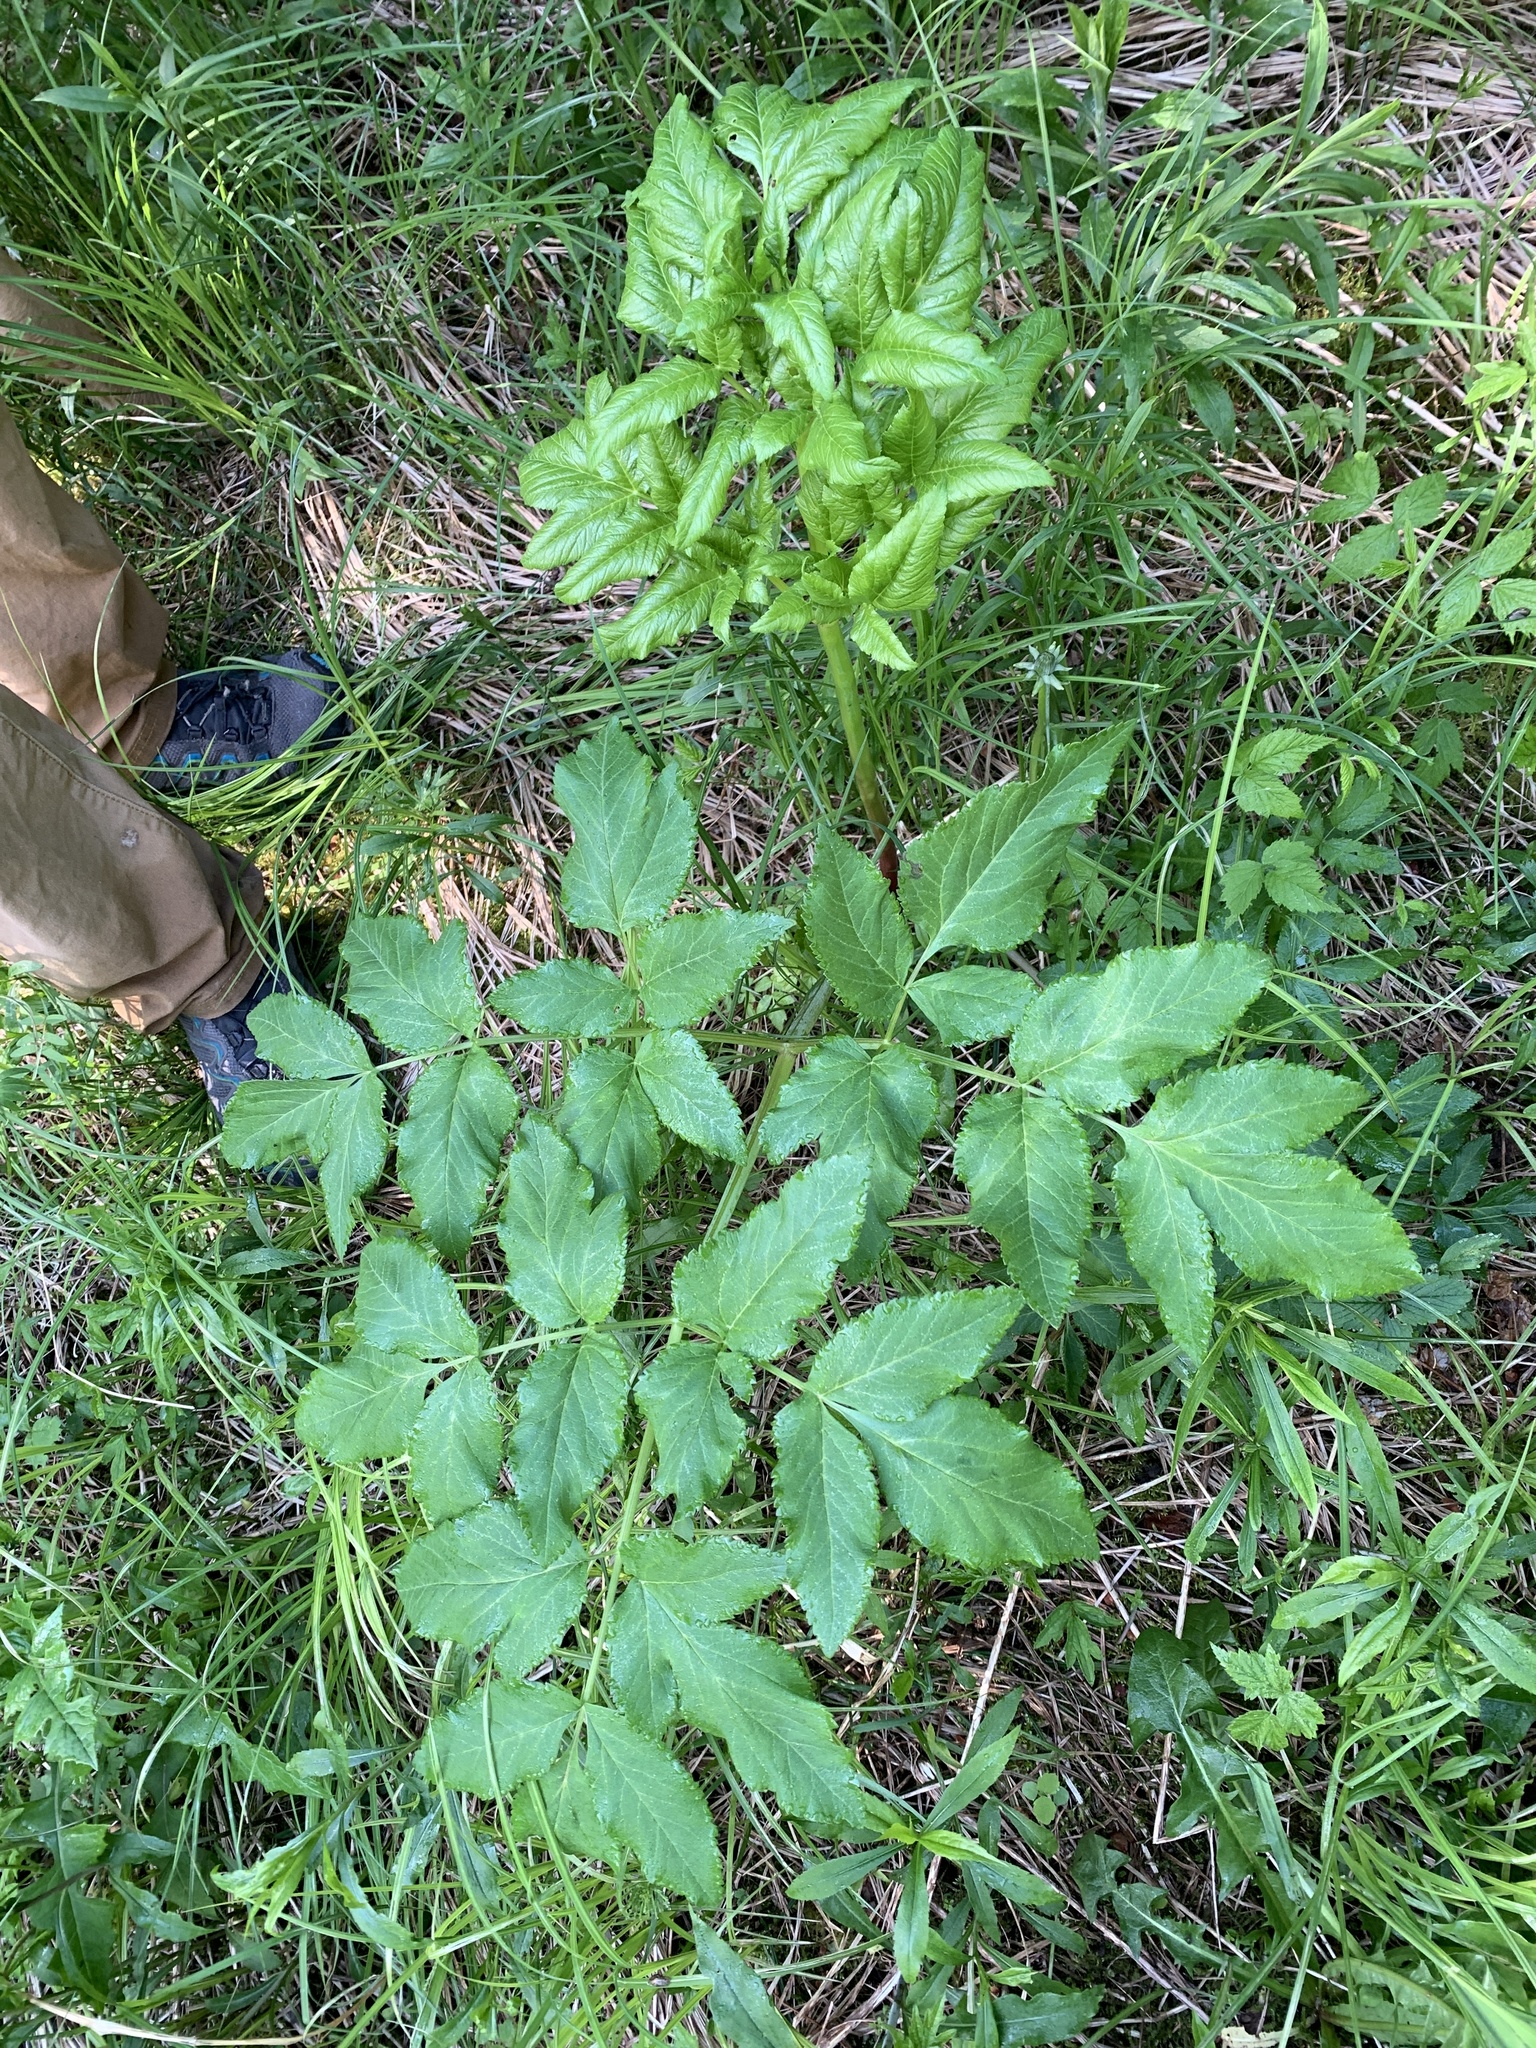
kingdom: Plantae
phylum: Tracheophyta
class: Magnoliopsida
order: Apiales
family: Apiaceae
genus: Angelica
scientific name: Angelica atropurpurea
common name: Great angelica
